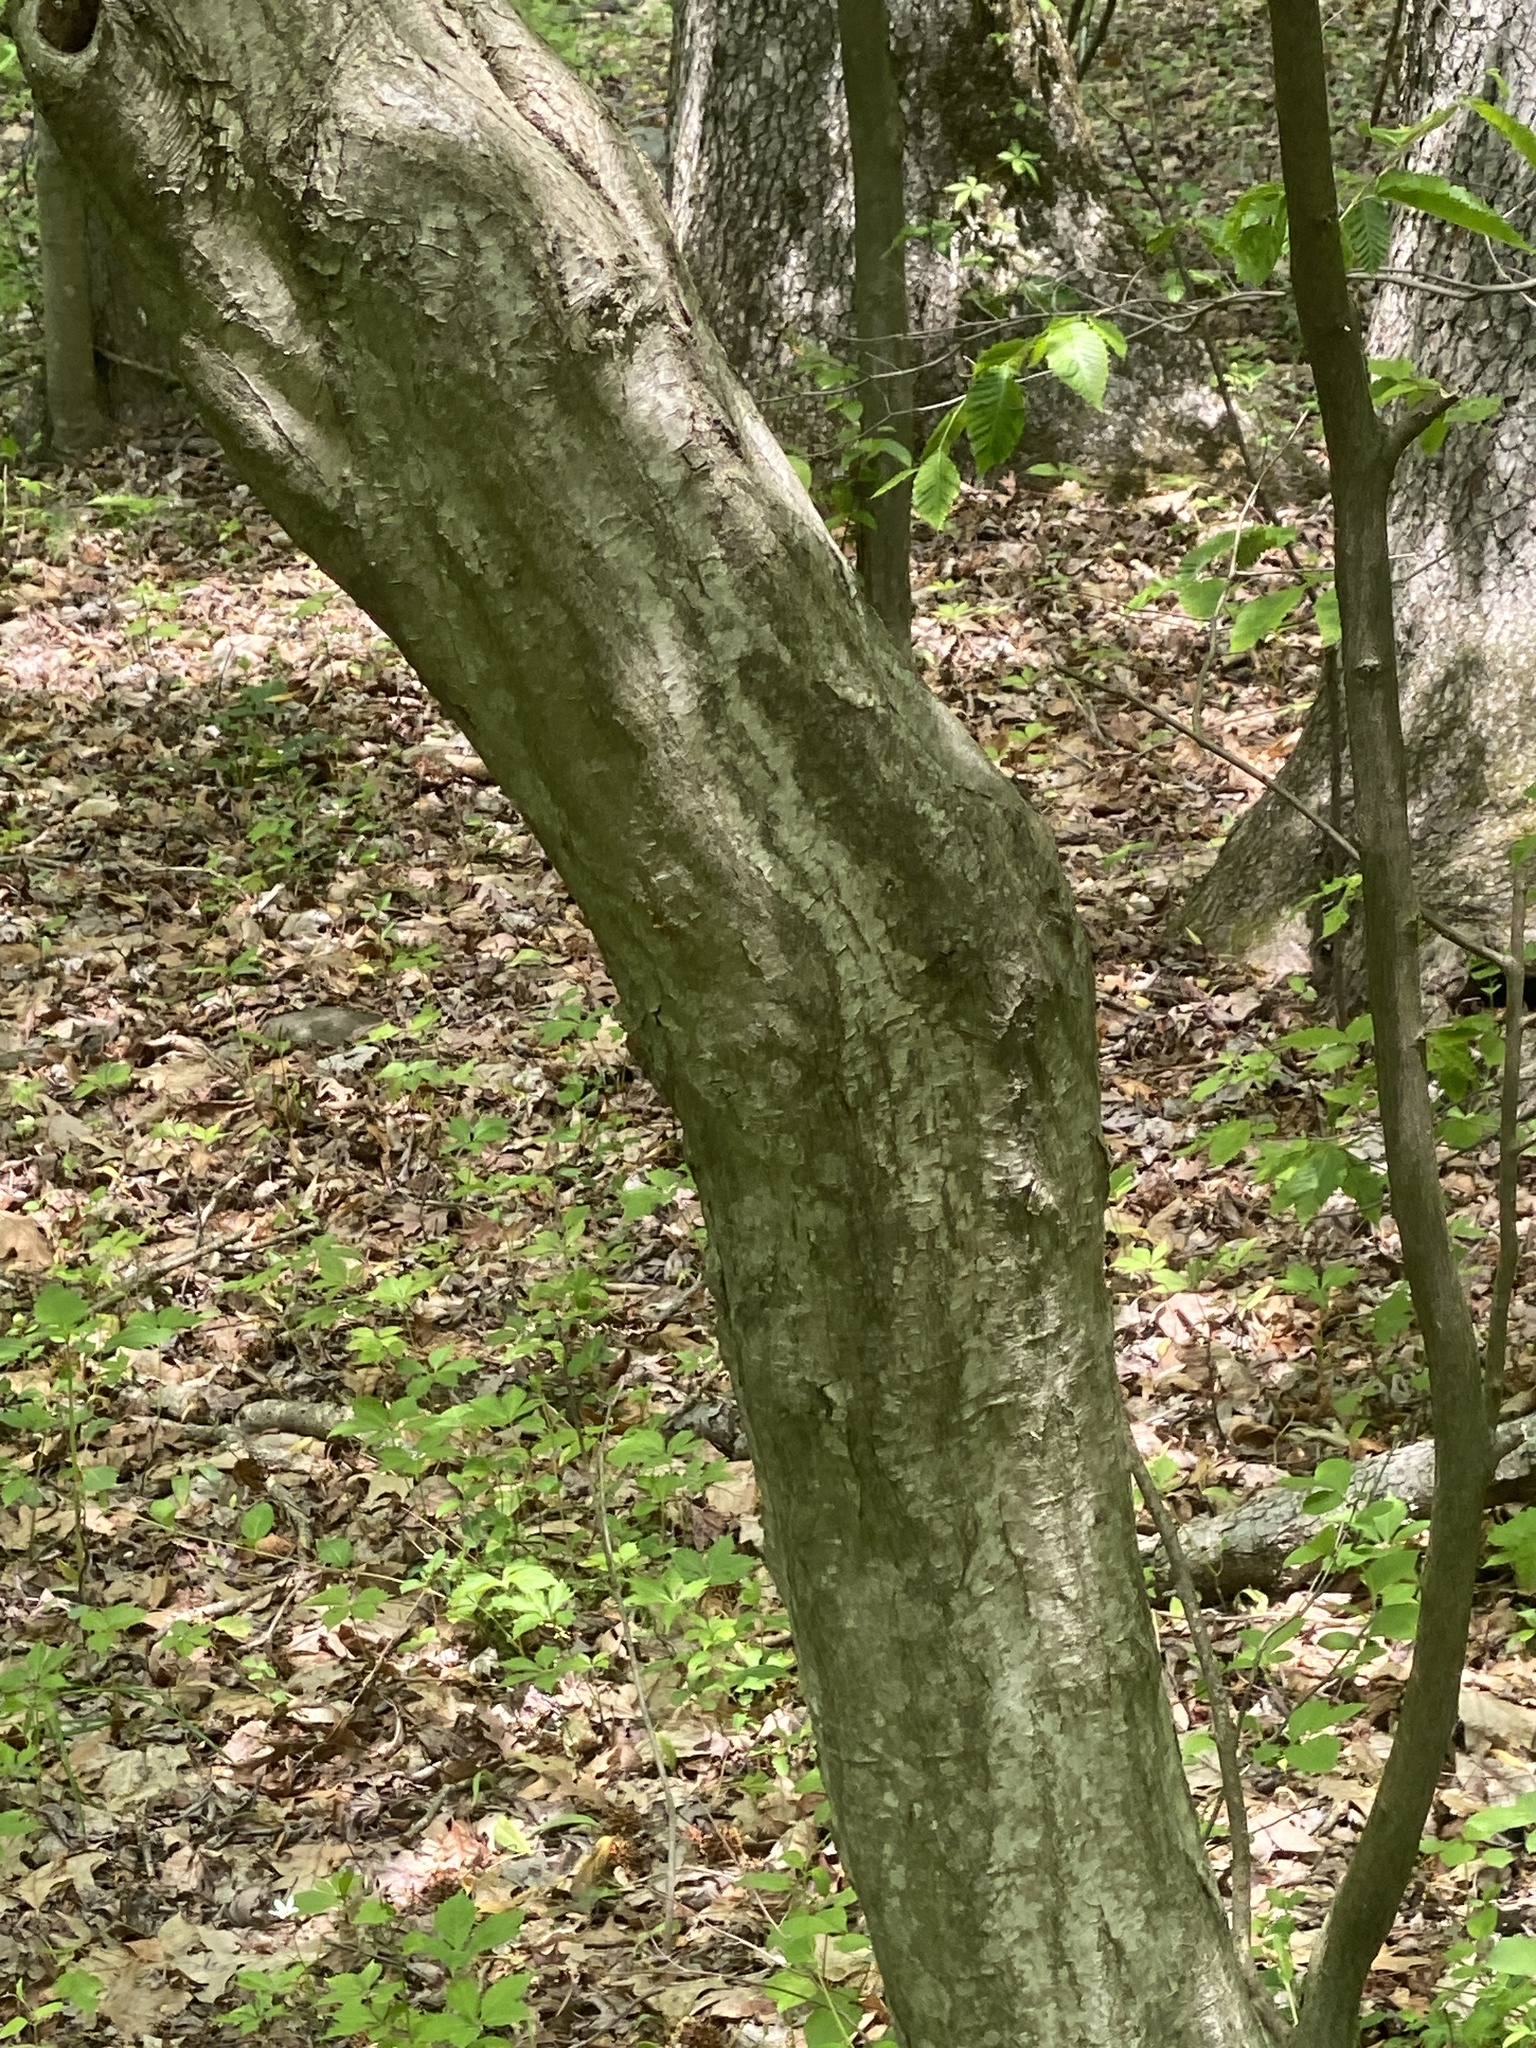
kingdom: Plantae
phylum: Tracheophyta
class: Magnoliopsida
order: Fagales
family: Betulaceae
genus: Carpinus
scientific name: Carpinus caroliniana
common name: American hornbeam
